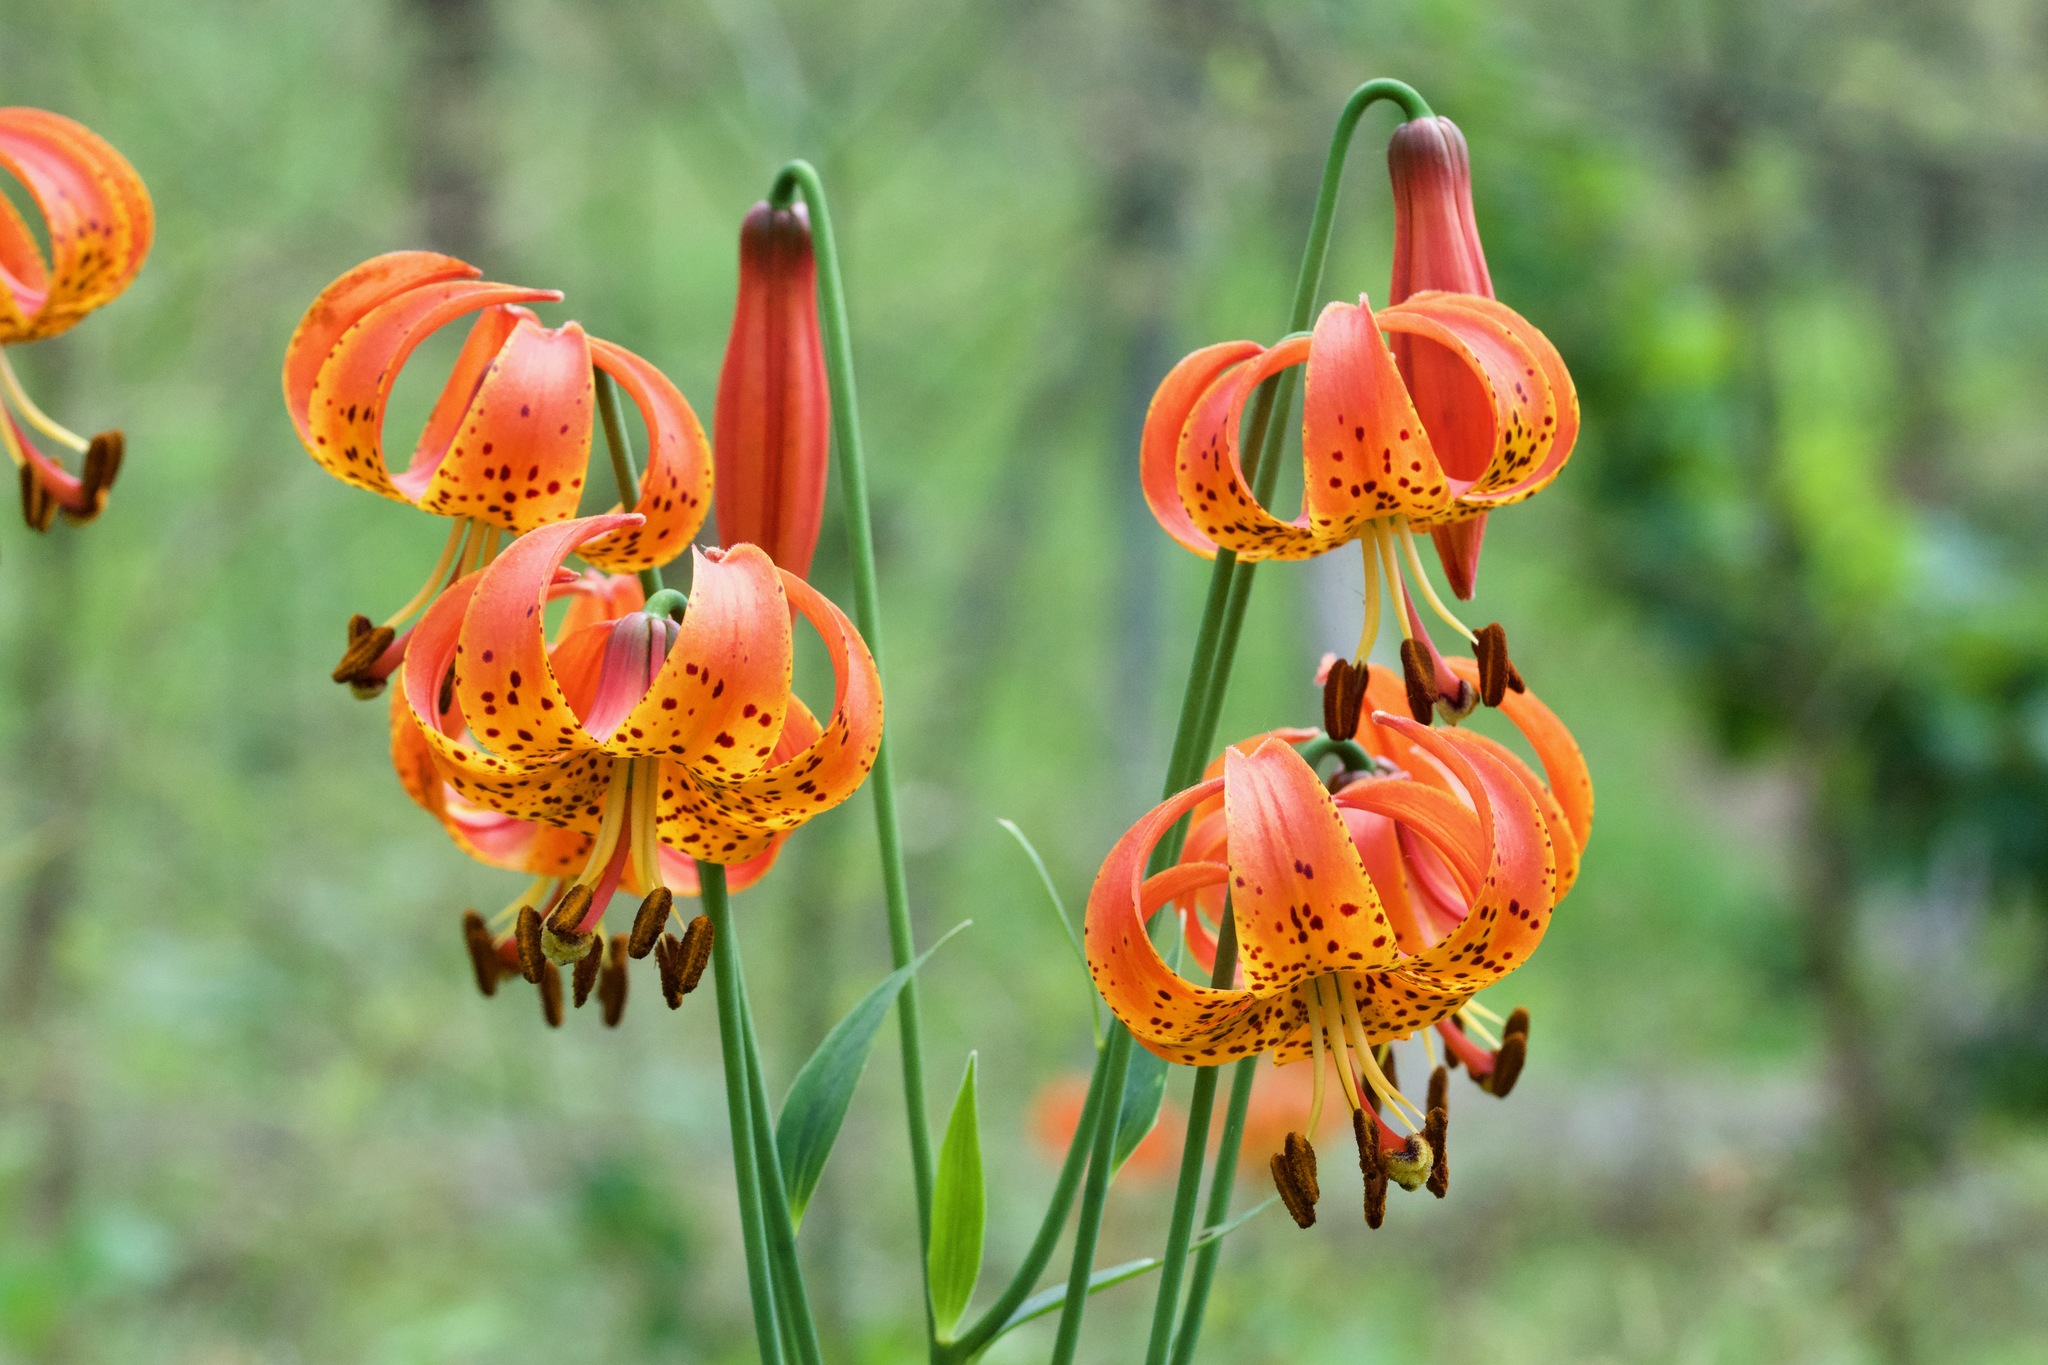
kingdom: Plantae
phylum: Tracheophyta
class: Liliopsida
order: Liliales
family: Liliaceae
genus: Lilium
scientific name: Lilium michiganense
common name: Michigan lily
